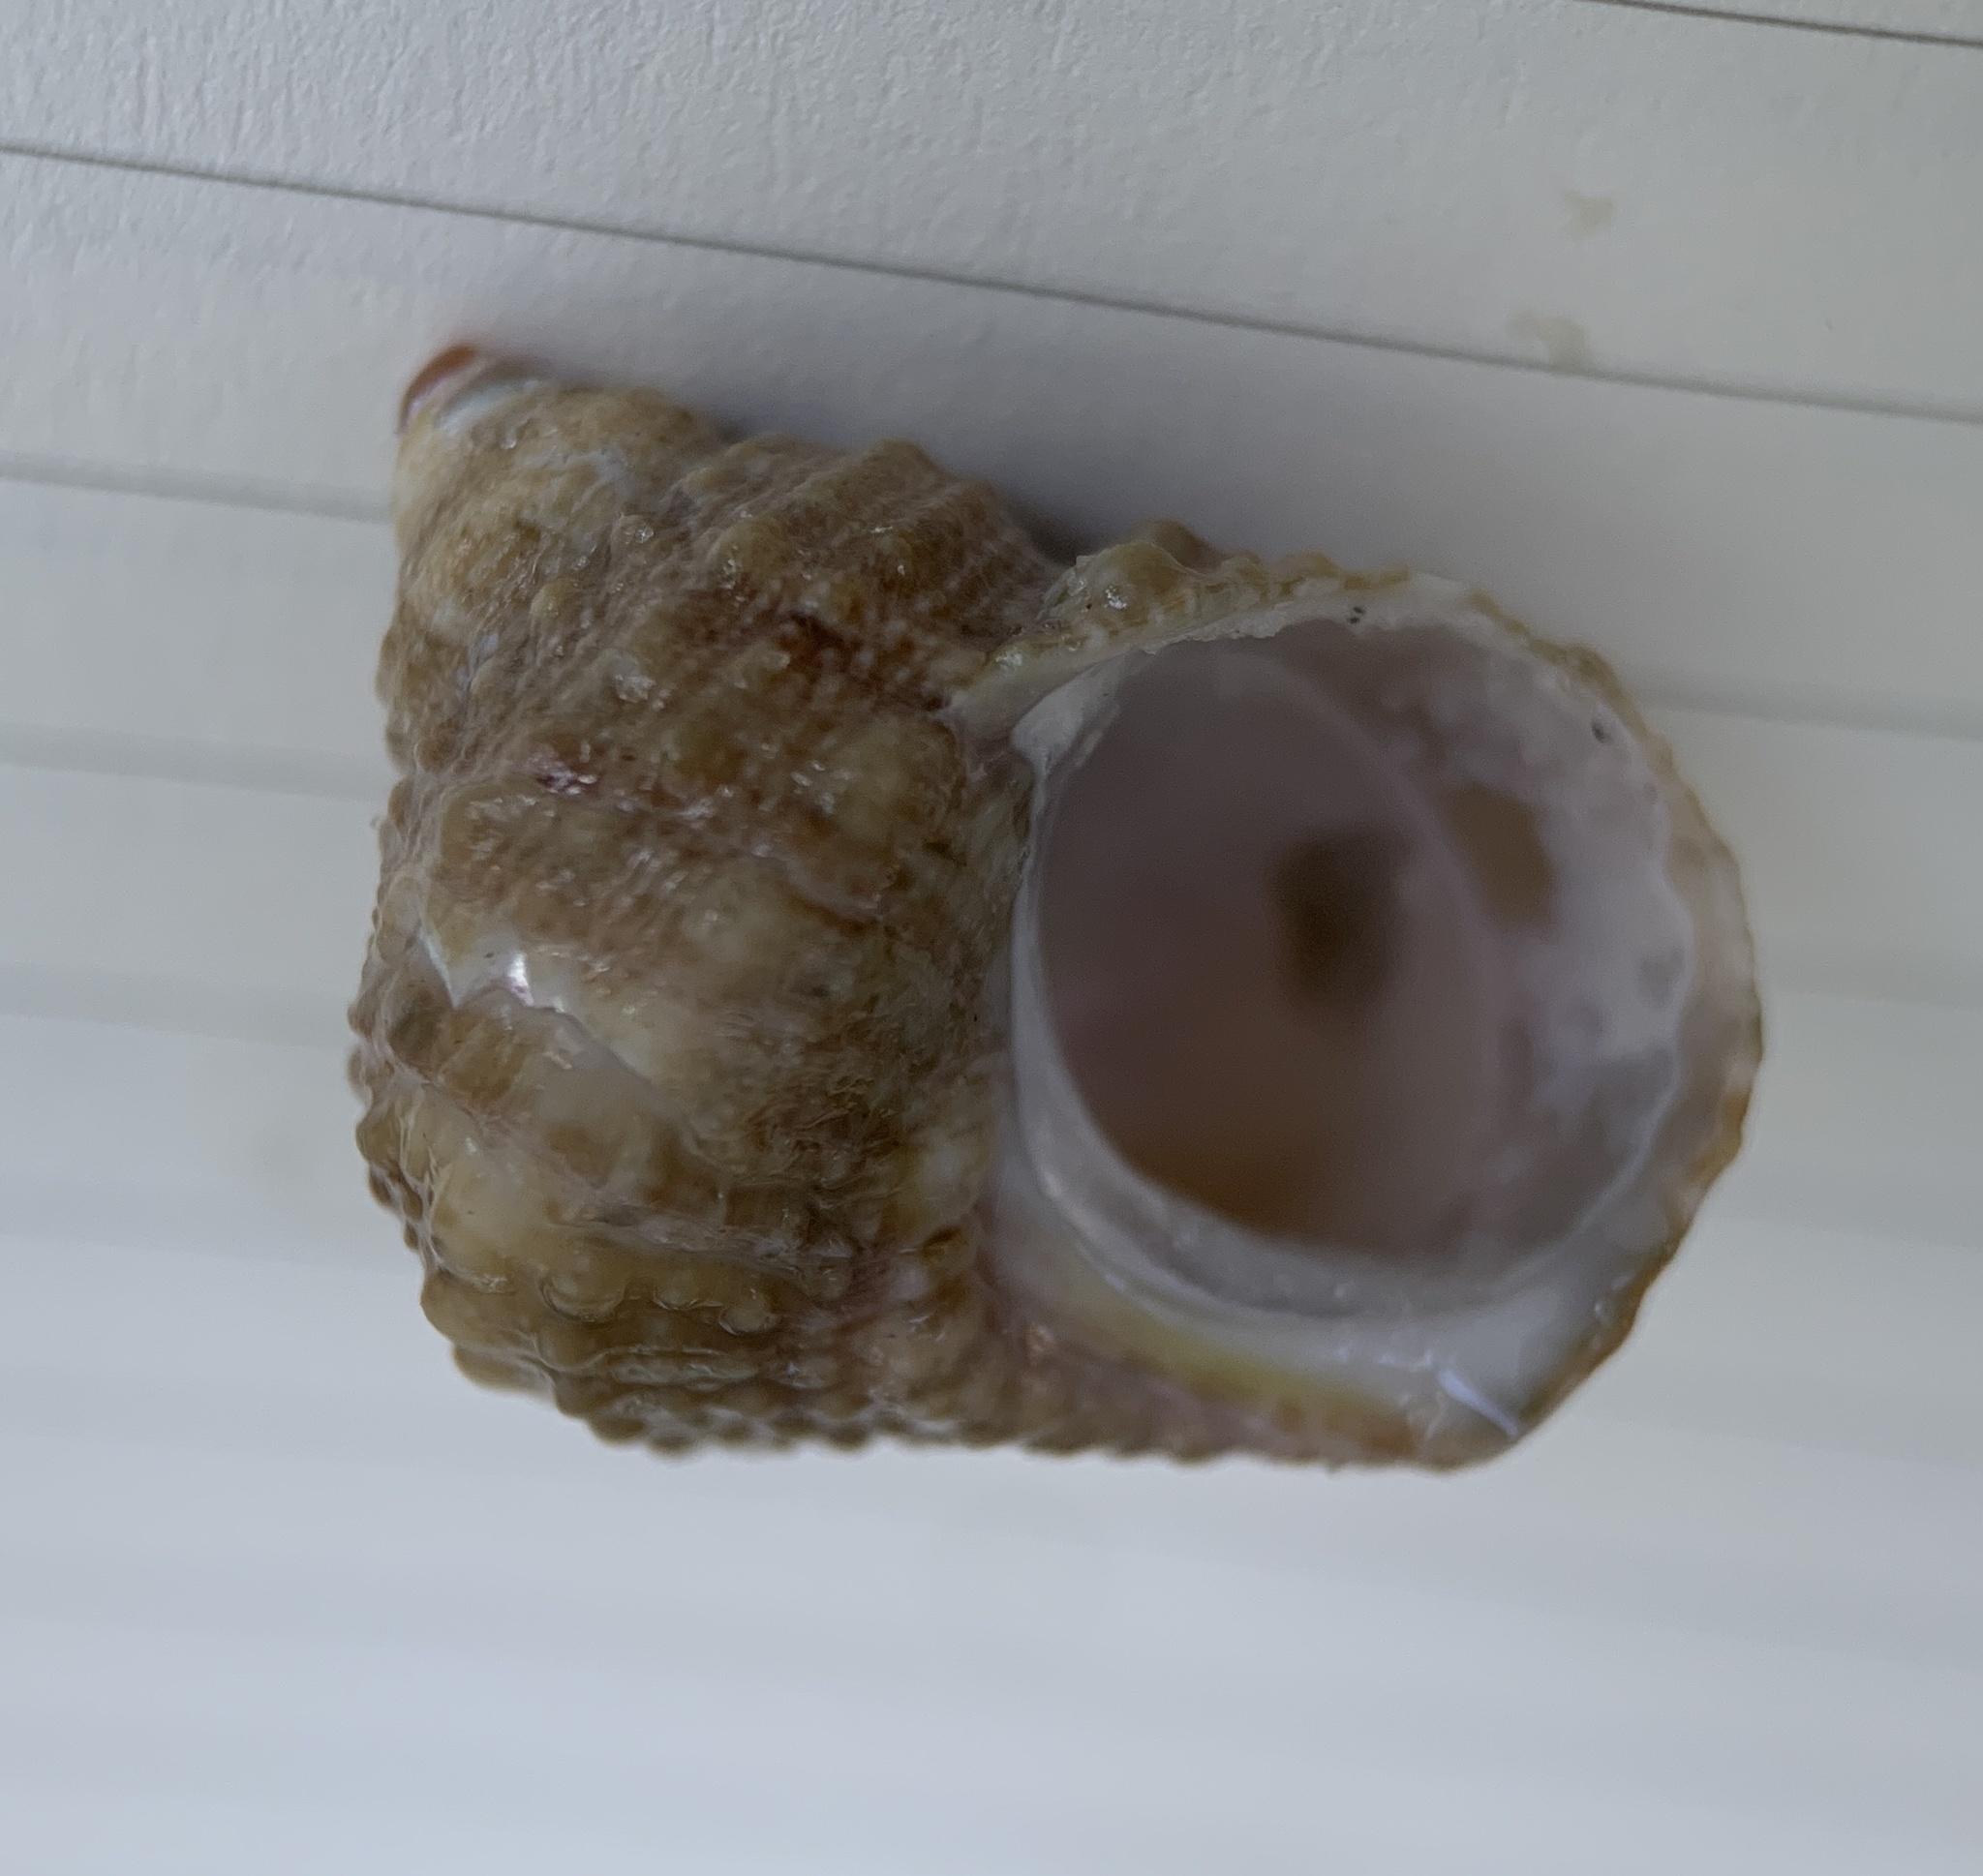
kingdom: Animalia
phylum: Mollusca
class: Gastropoda
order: Trochida
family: Turbinidae
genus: Turbo
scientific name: Turbo castanea
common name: Chestnut turban
